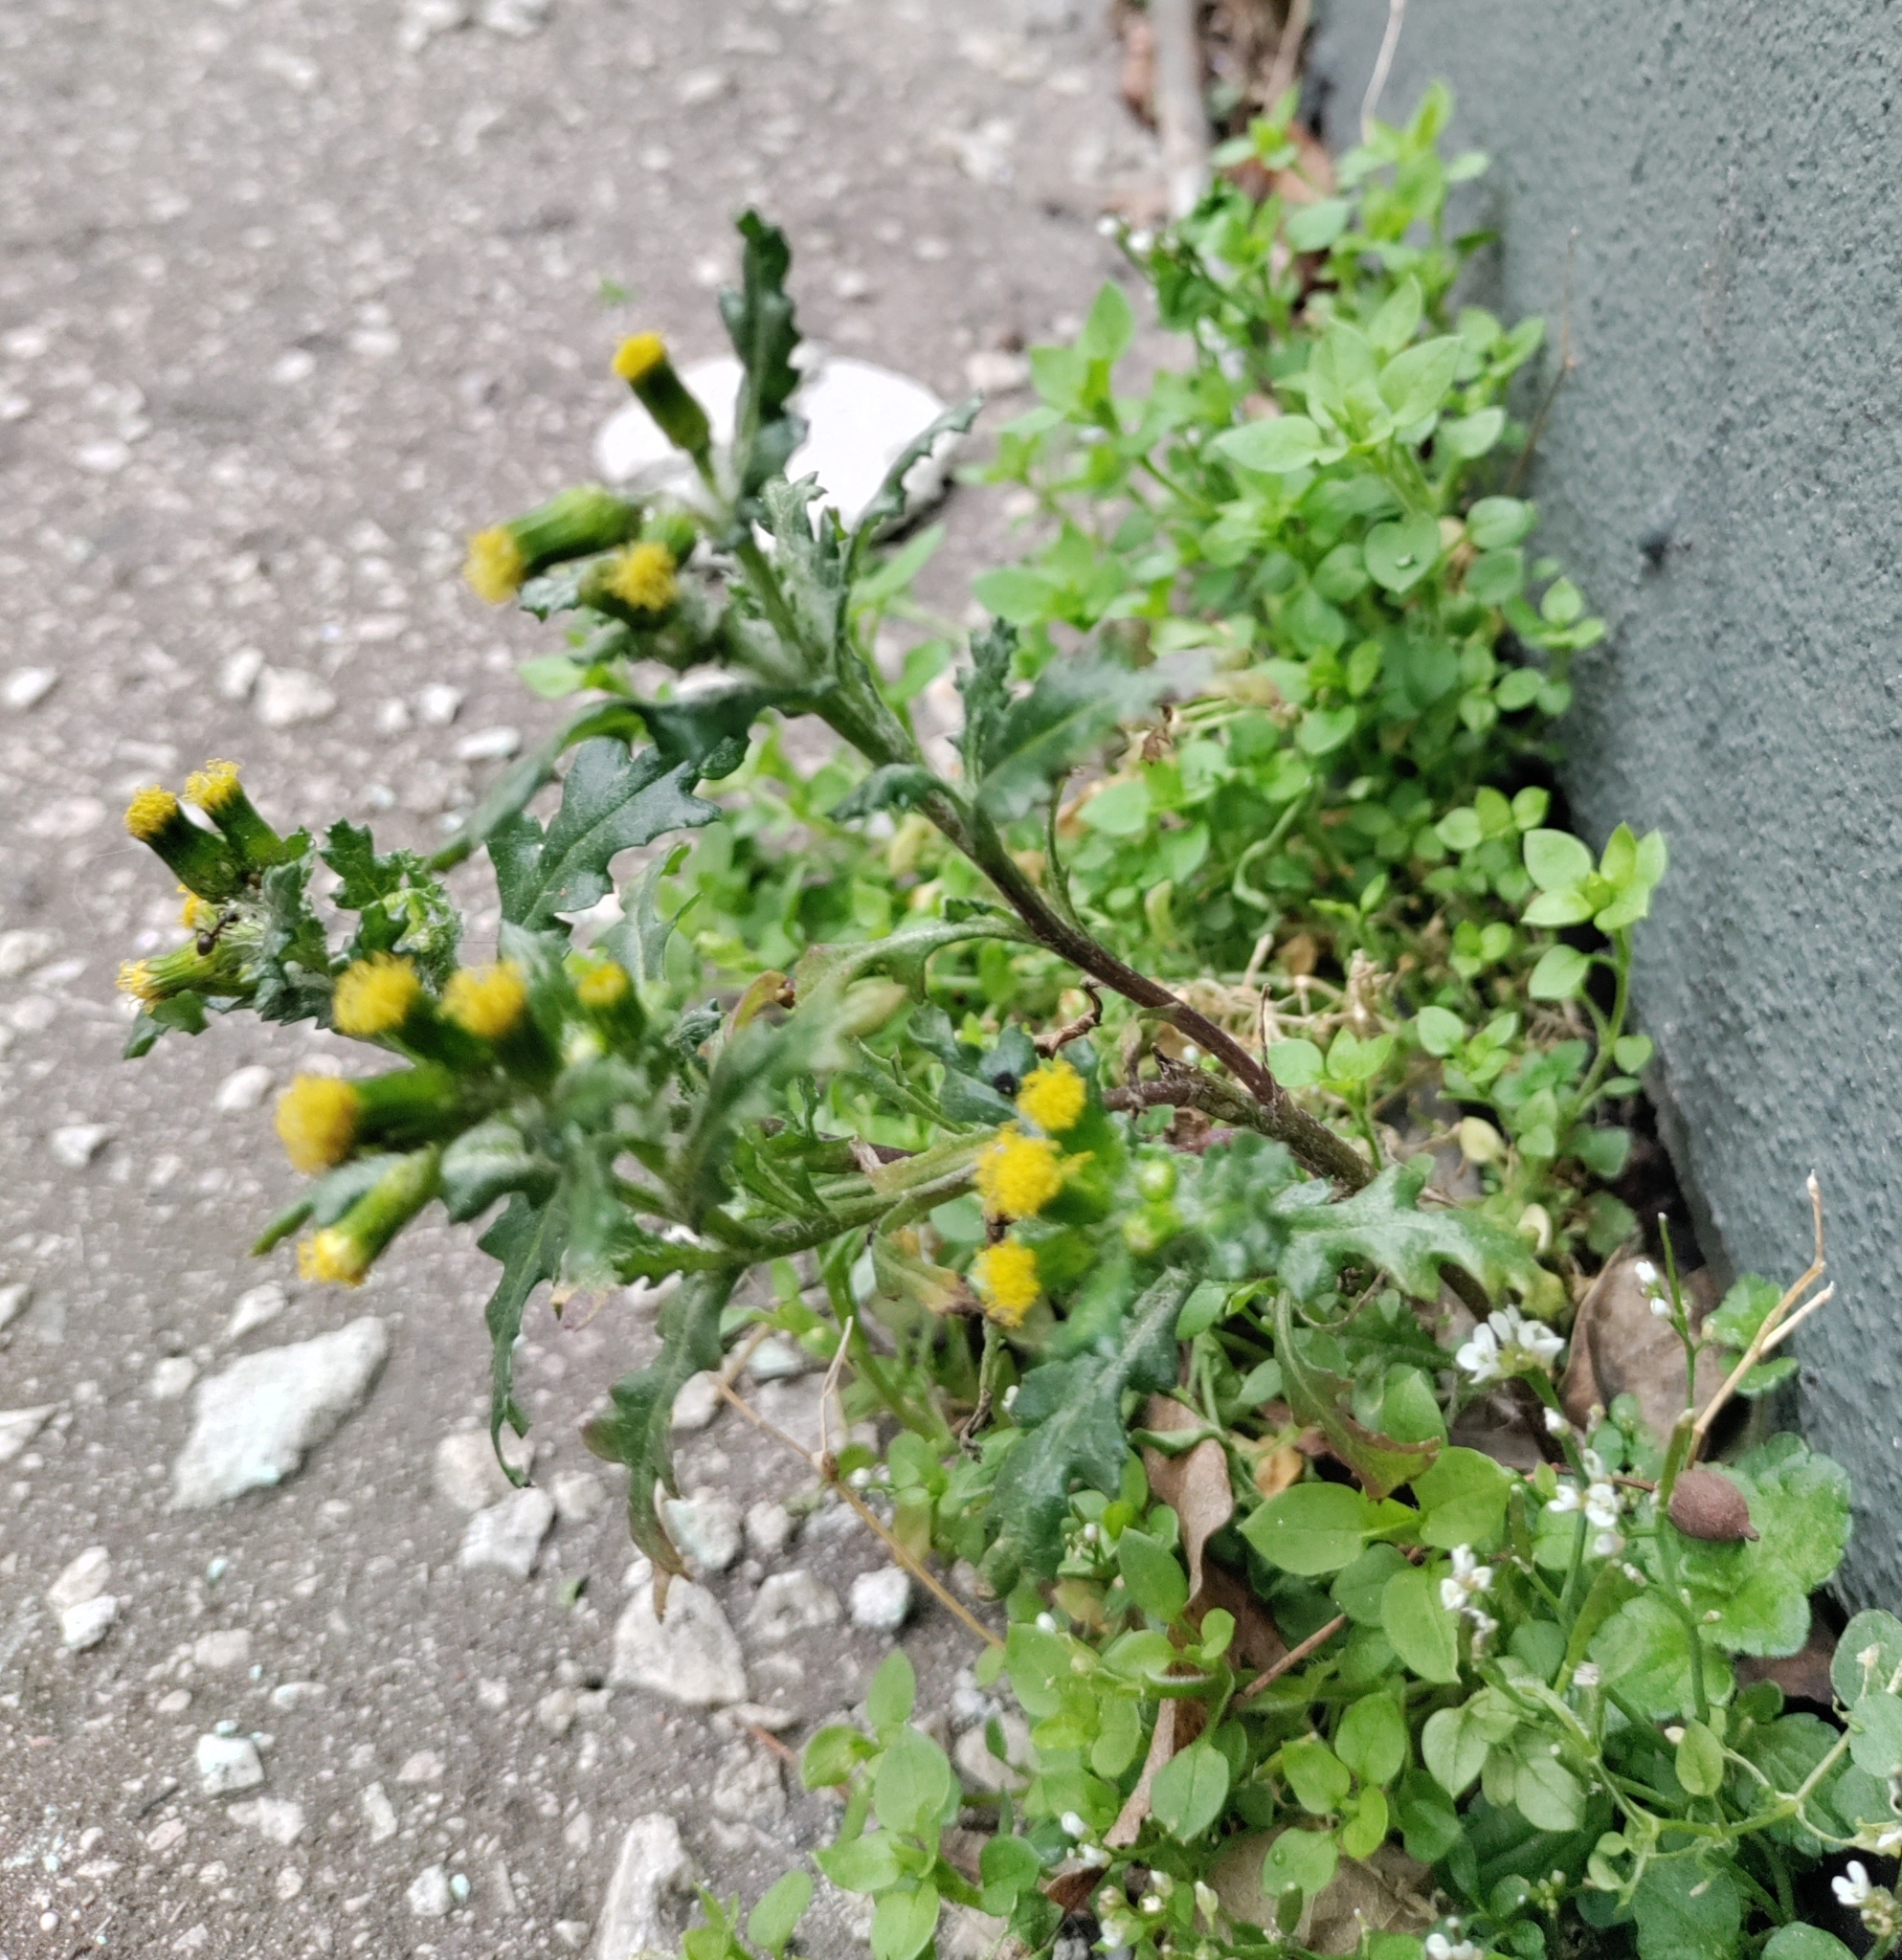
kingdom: Plantae
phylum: Tracheophyta
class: Magnoliopsida
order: Asterales
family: Asteraceae
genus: Senecio
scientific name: Senecio vulgaris
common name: Old-man-in-the-spring
